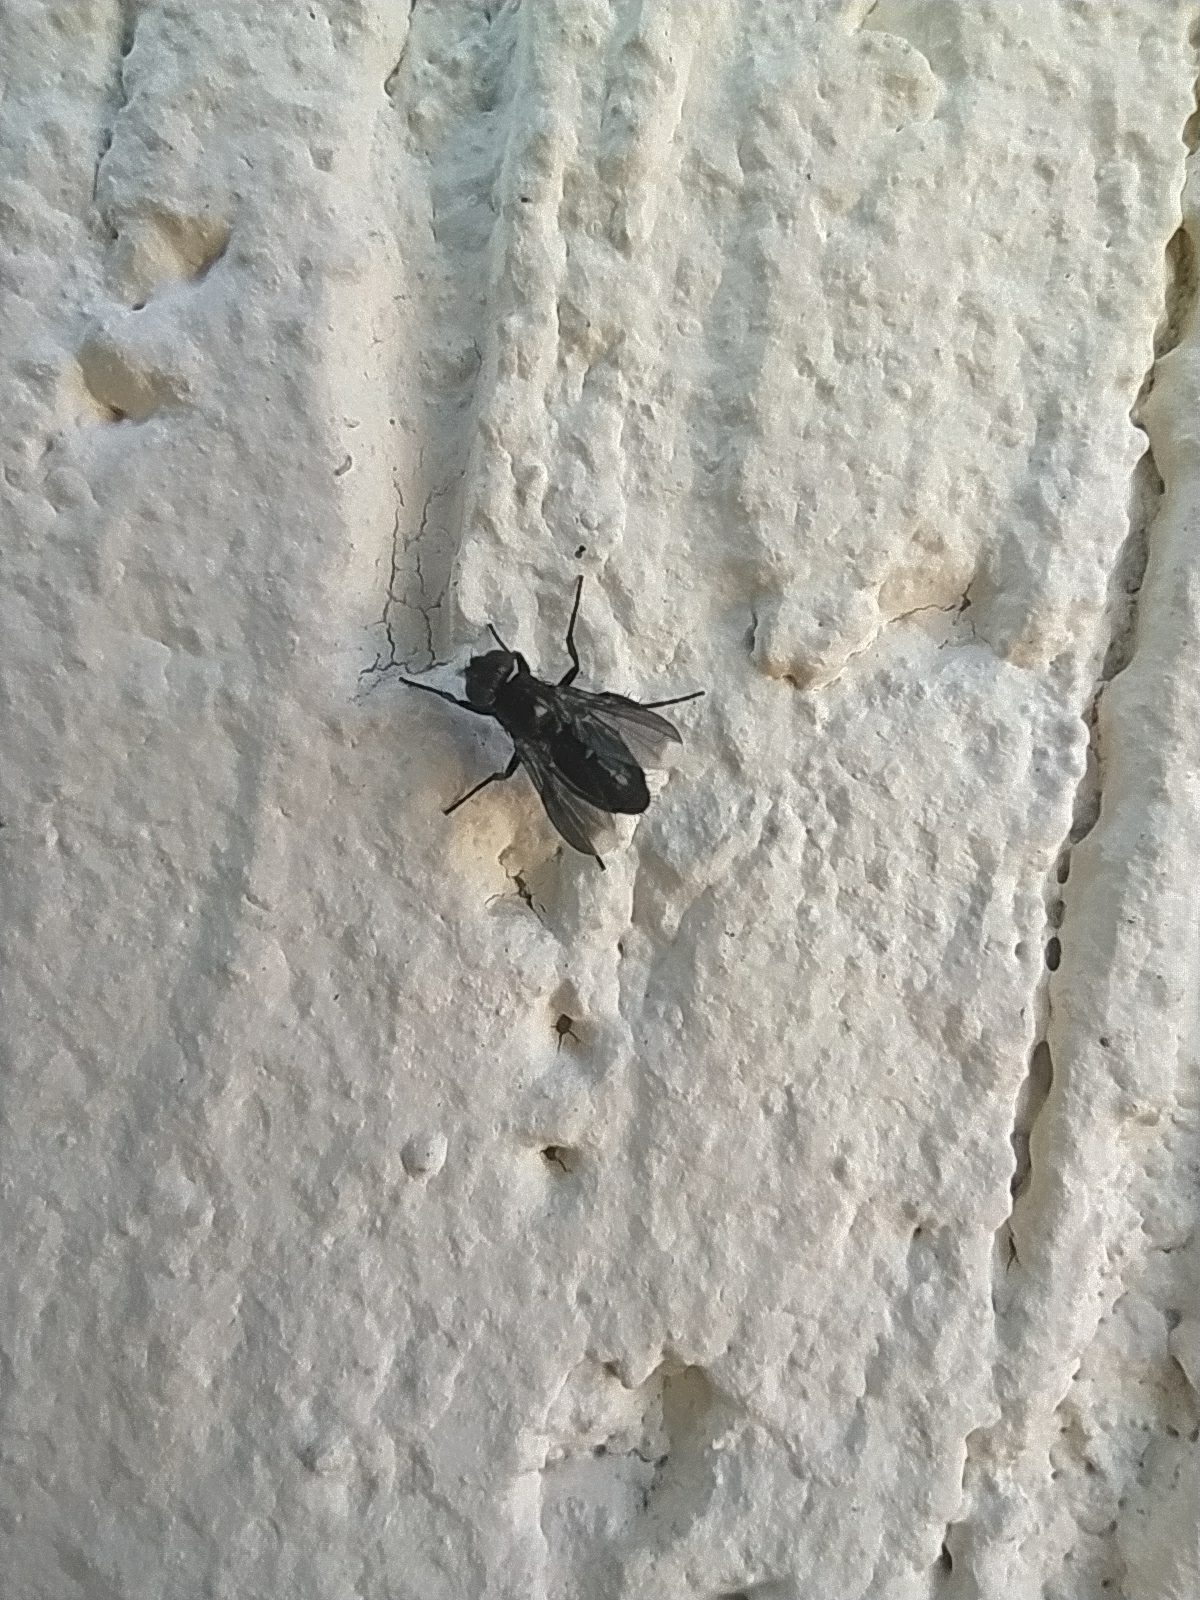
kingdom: Animalia
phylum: Arthropoda
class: Insecta
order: Diptera
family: Calliphoridae
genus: Melanophora
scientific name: Melanophora roralis
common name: Smoky-winged woodlouse-fly
